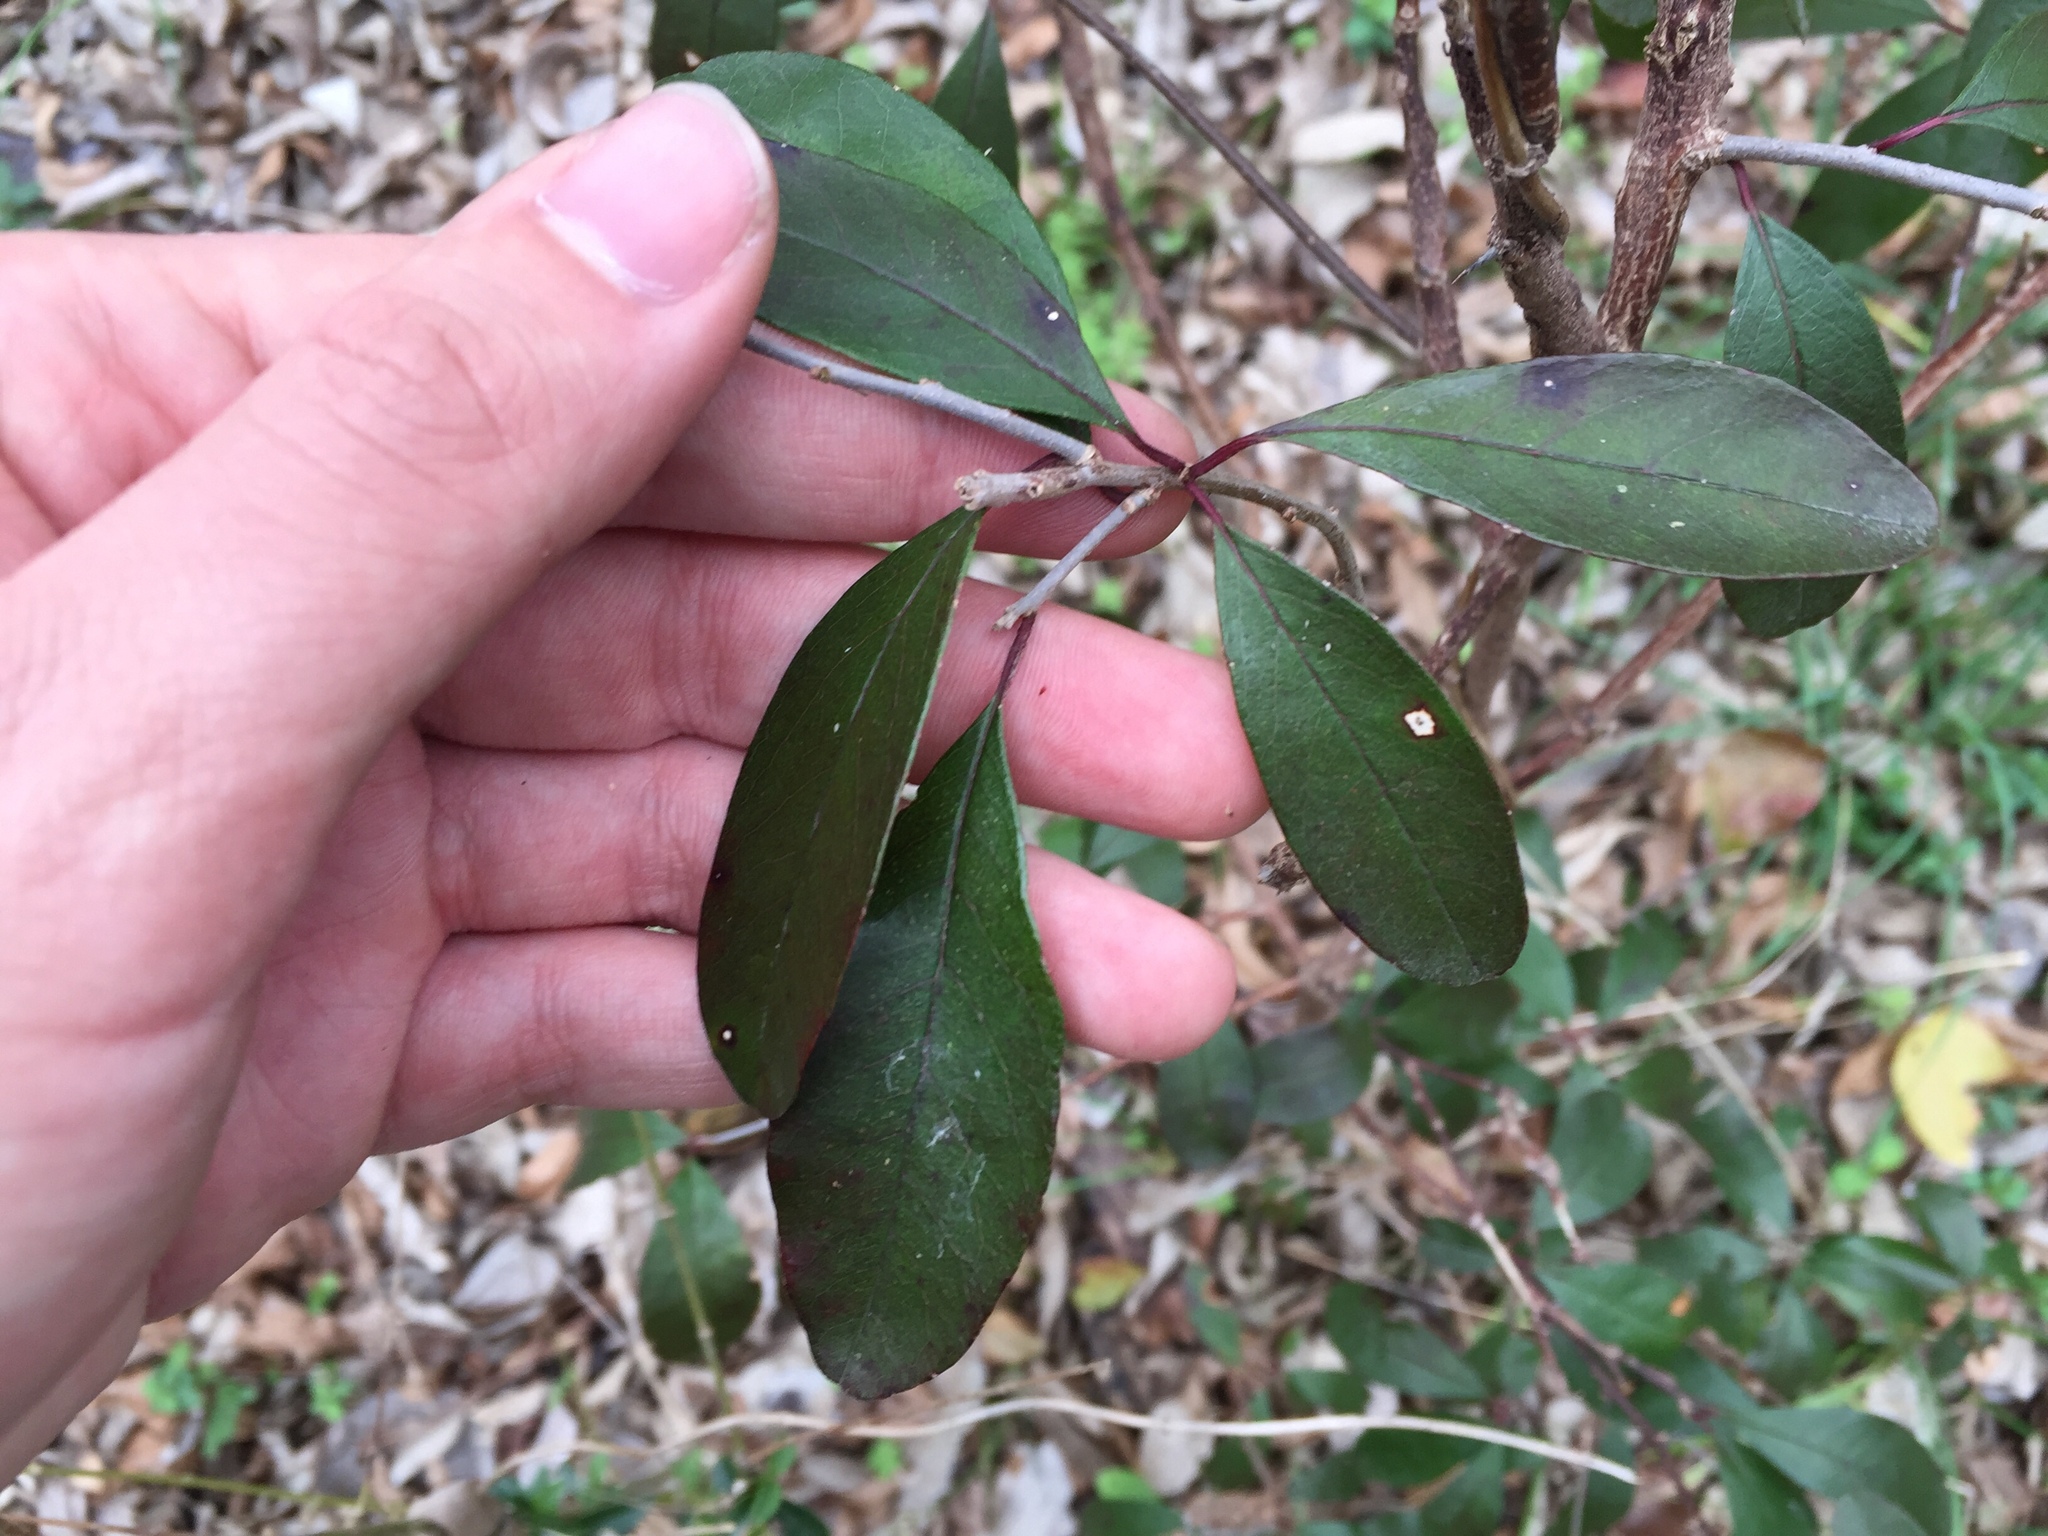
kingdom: Plantae
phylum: Tracheophyta
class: Magnoliopsida
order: Ericales
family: Sapotaceae
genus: Sideroxylon
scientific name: Sideroxylon lanuginosum
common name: Chittamwood
